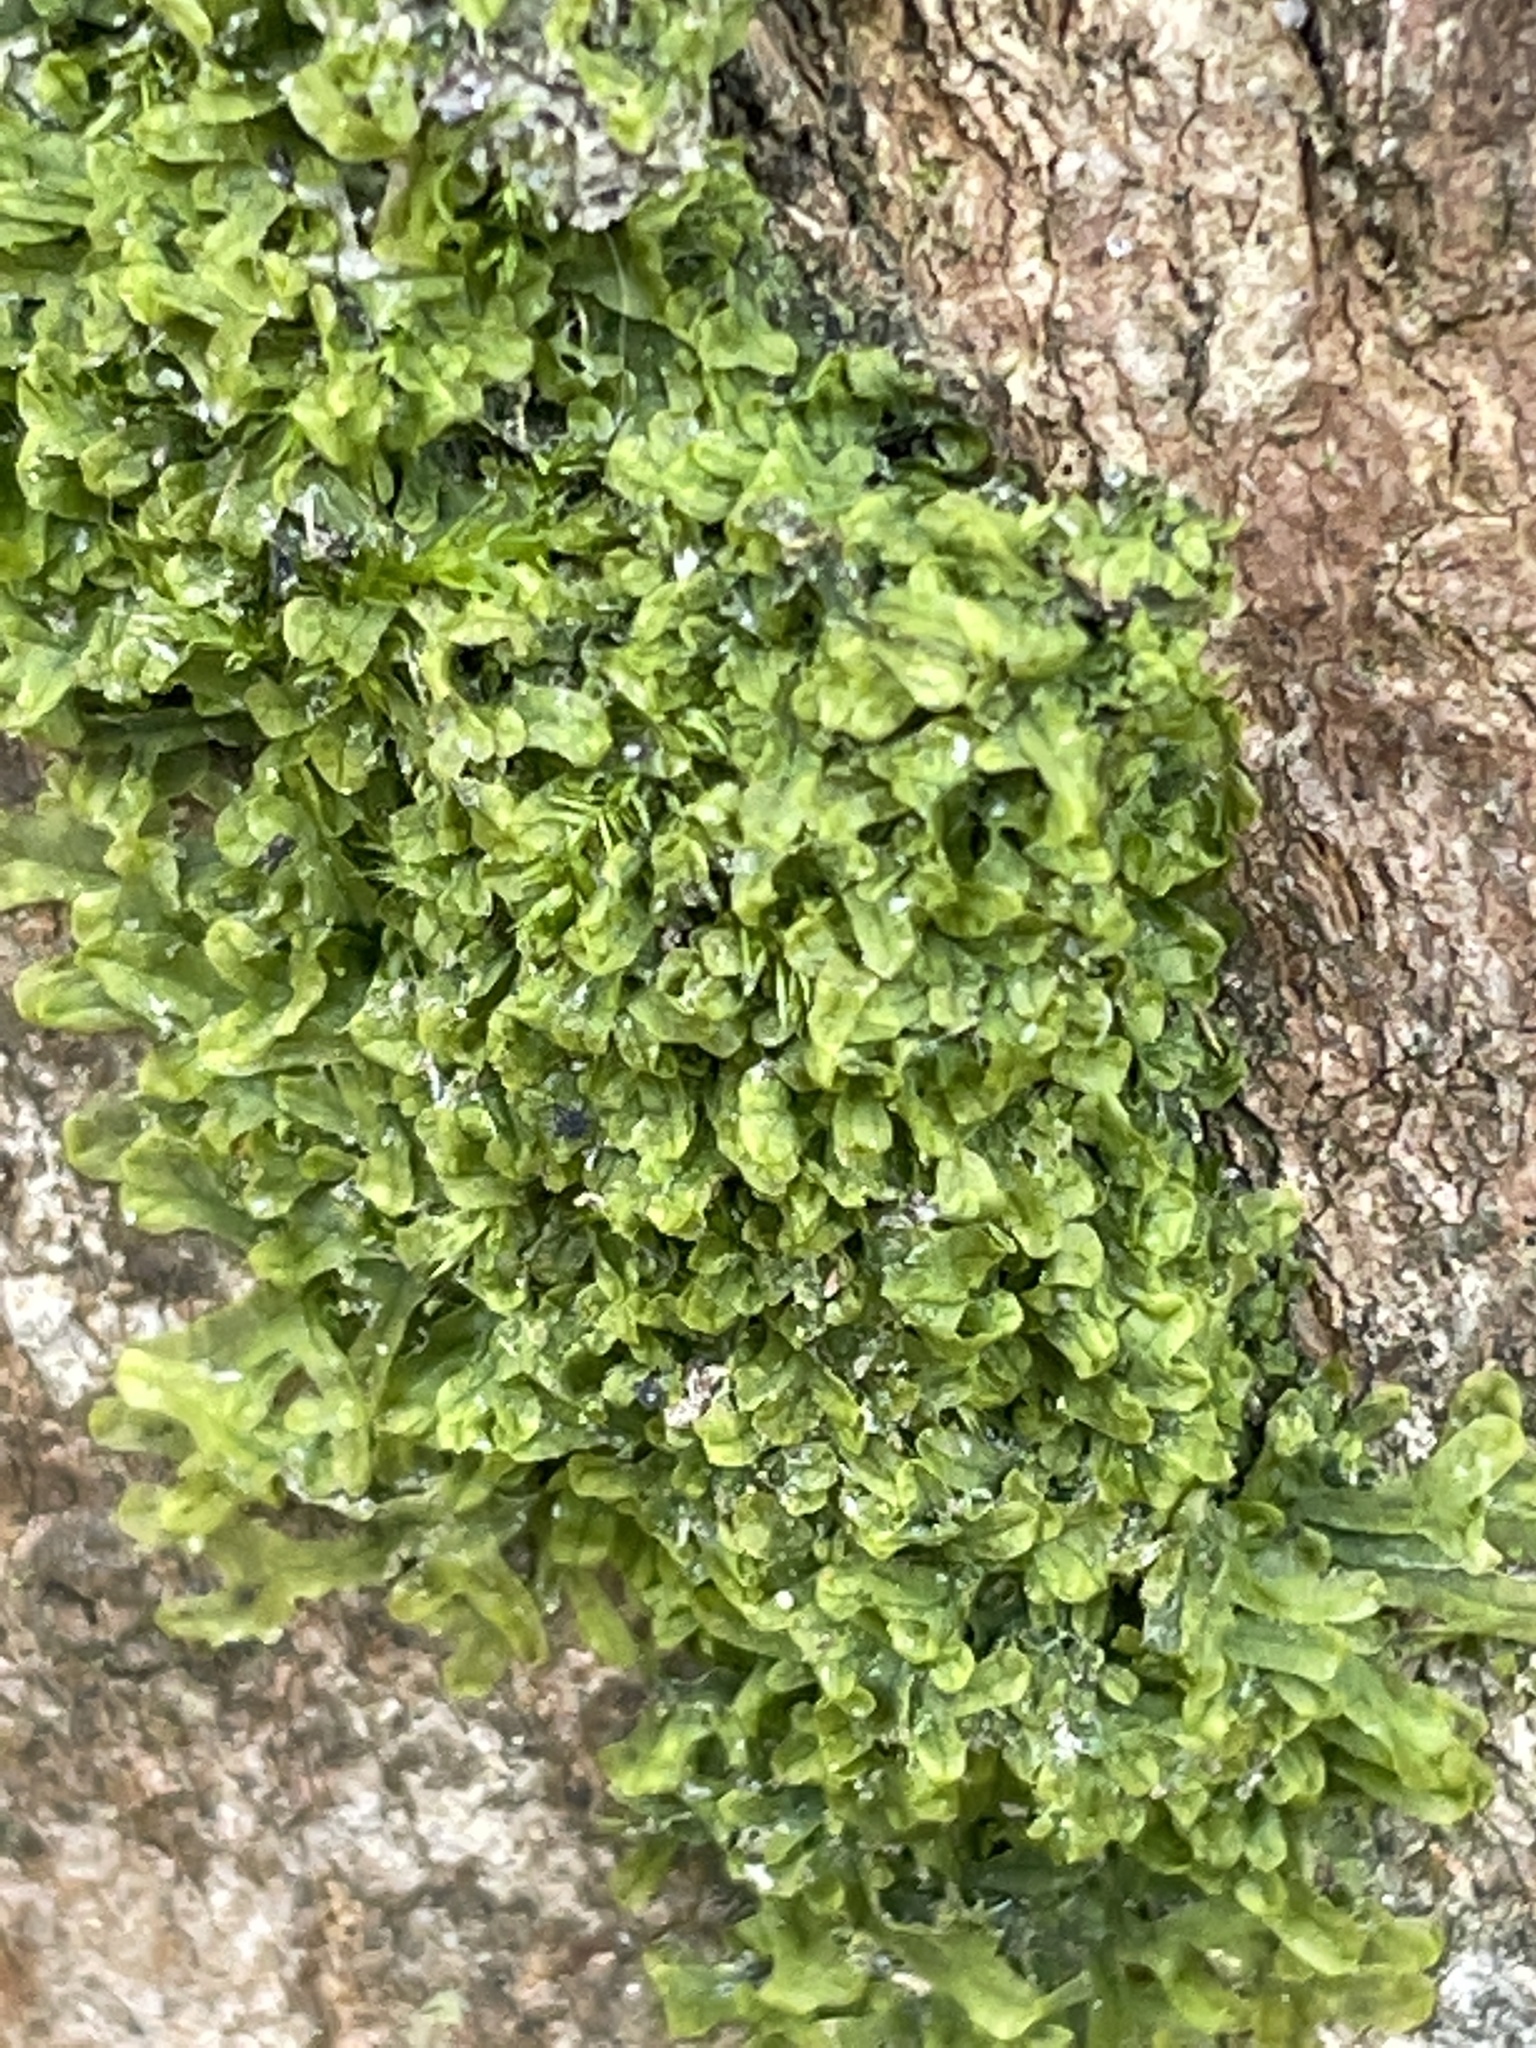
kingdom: Plantae
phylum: Marchantiophyta
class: Jungermanniopsida
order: Metzgeriales
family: Metzgeriaceae
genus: Metzgeria
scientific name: Metzgeria furcata
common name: Forked veilwort
